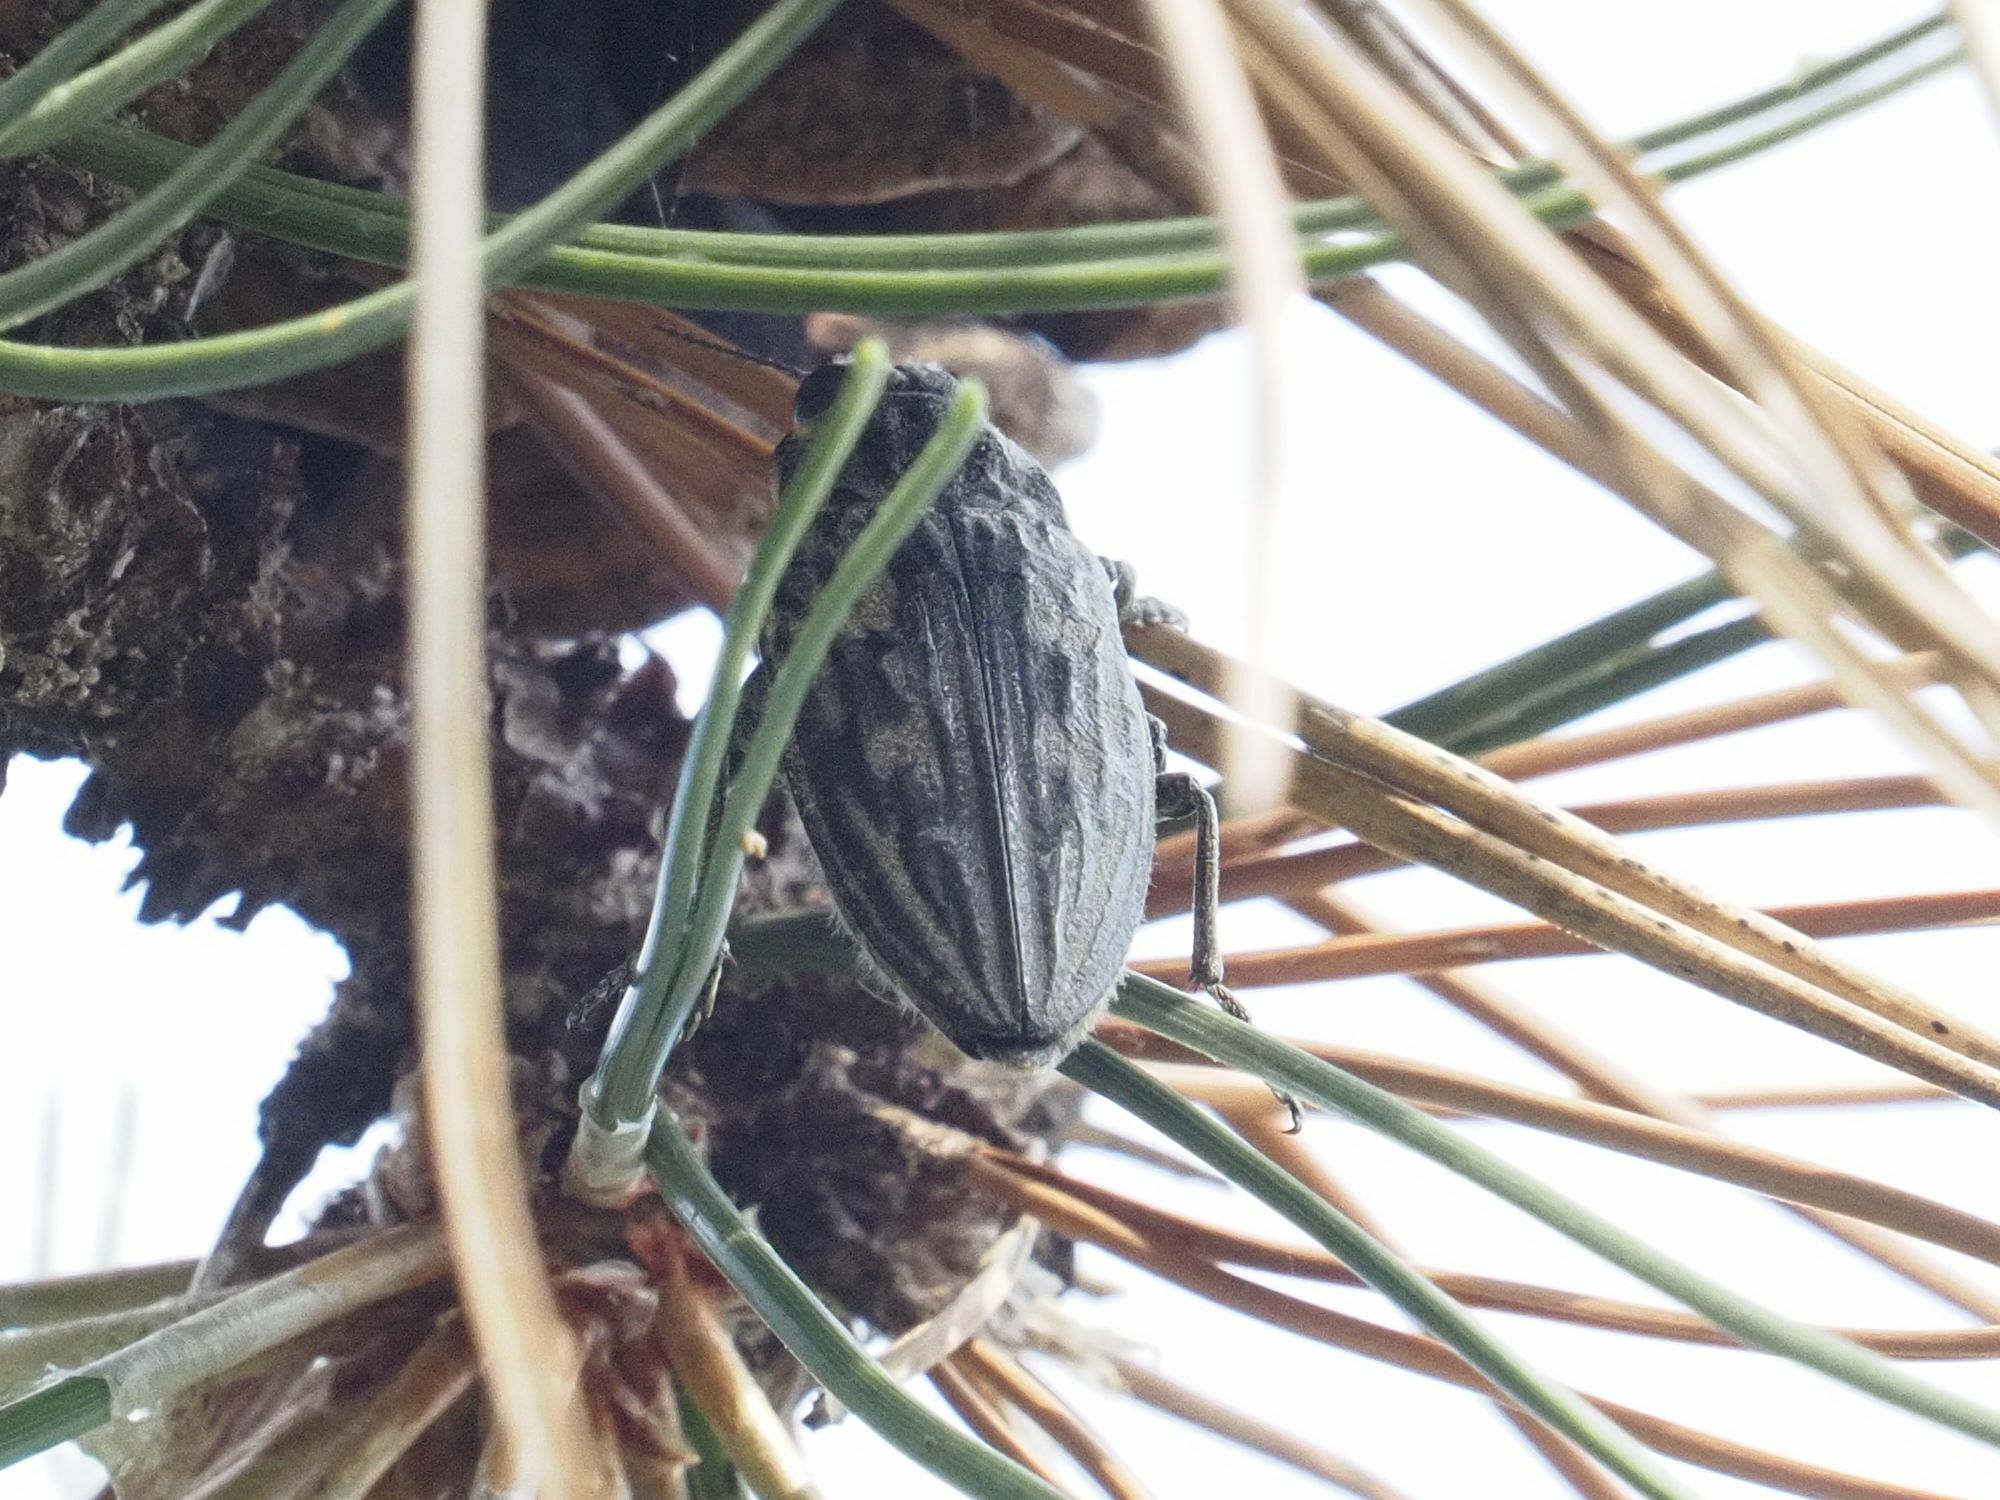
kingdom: Animalia
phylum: Arthropoda
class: Insecta
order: Coleoptera
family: Buprestidae
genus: Chalcophora
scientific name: Chalcophora mariana
